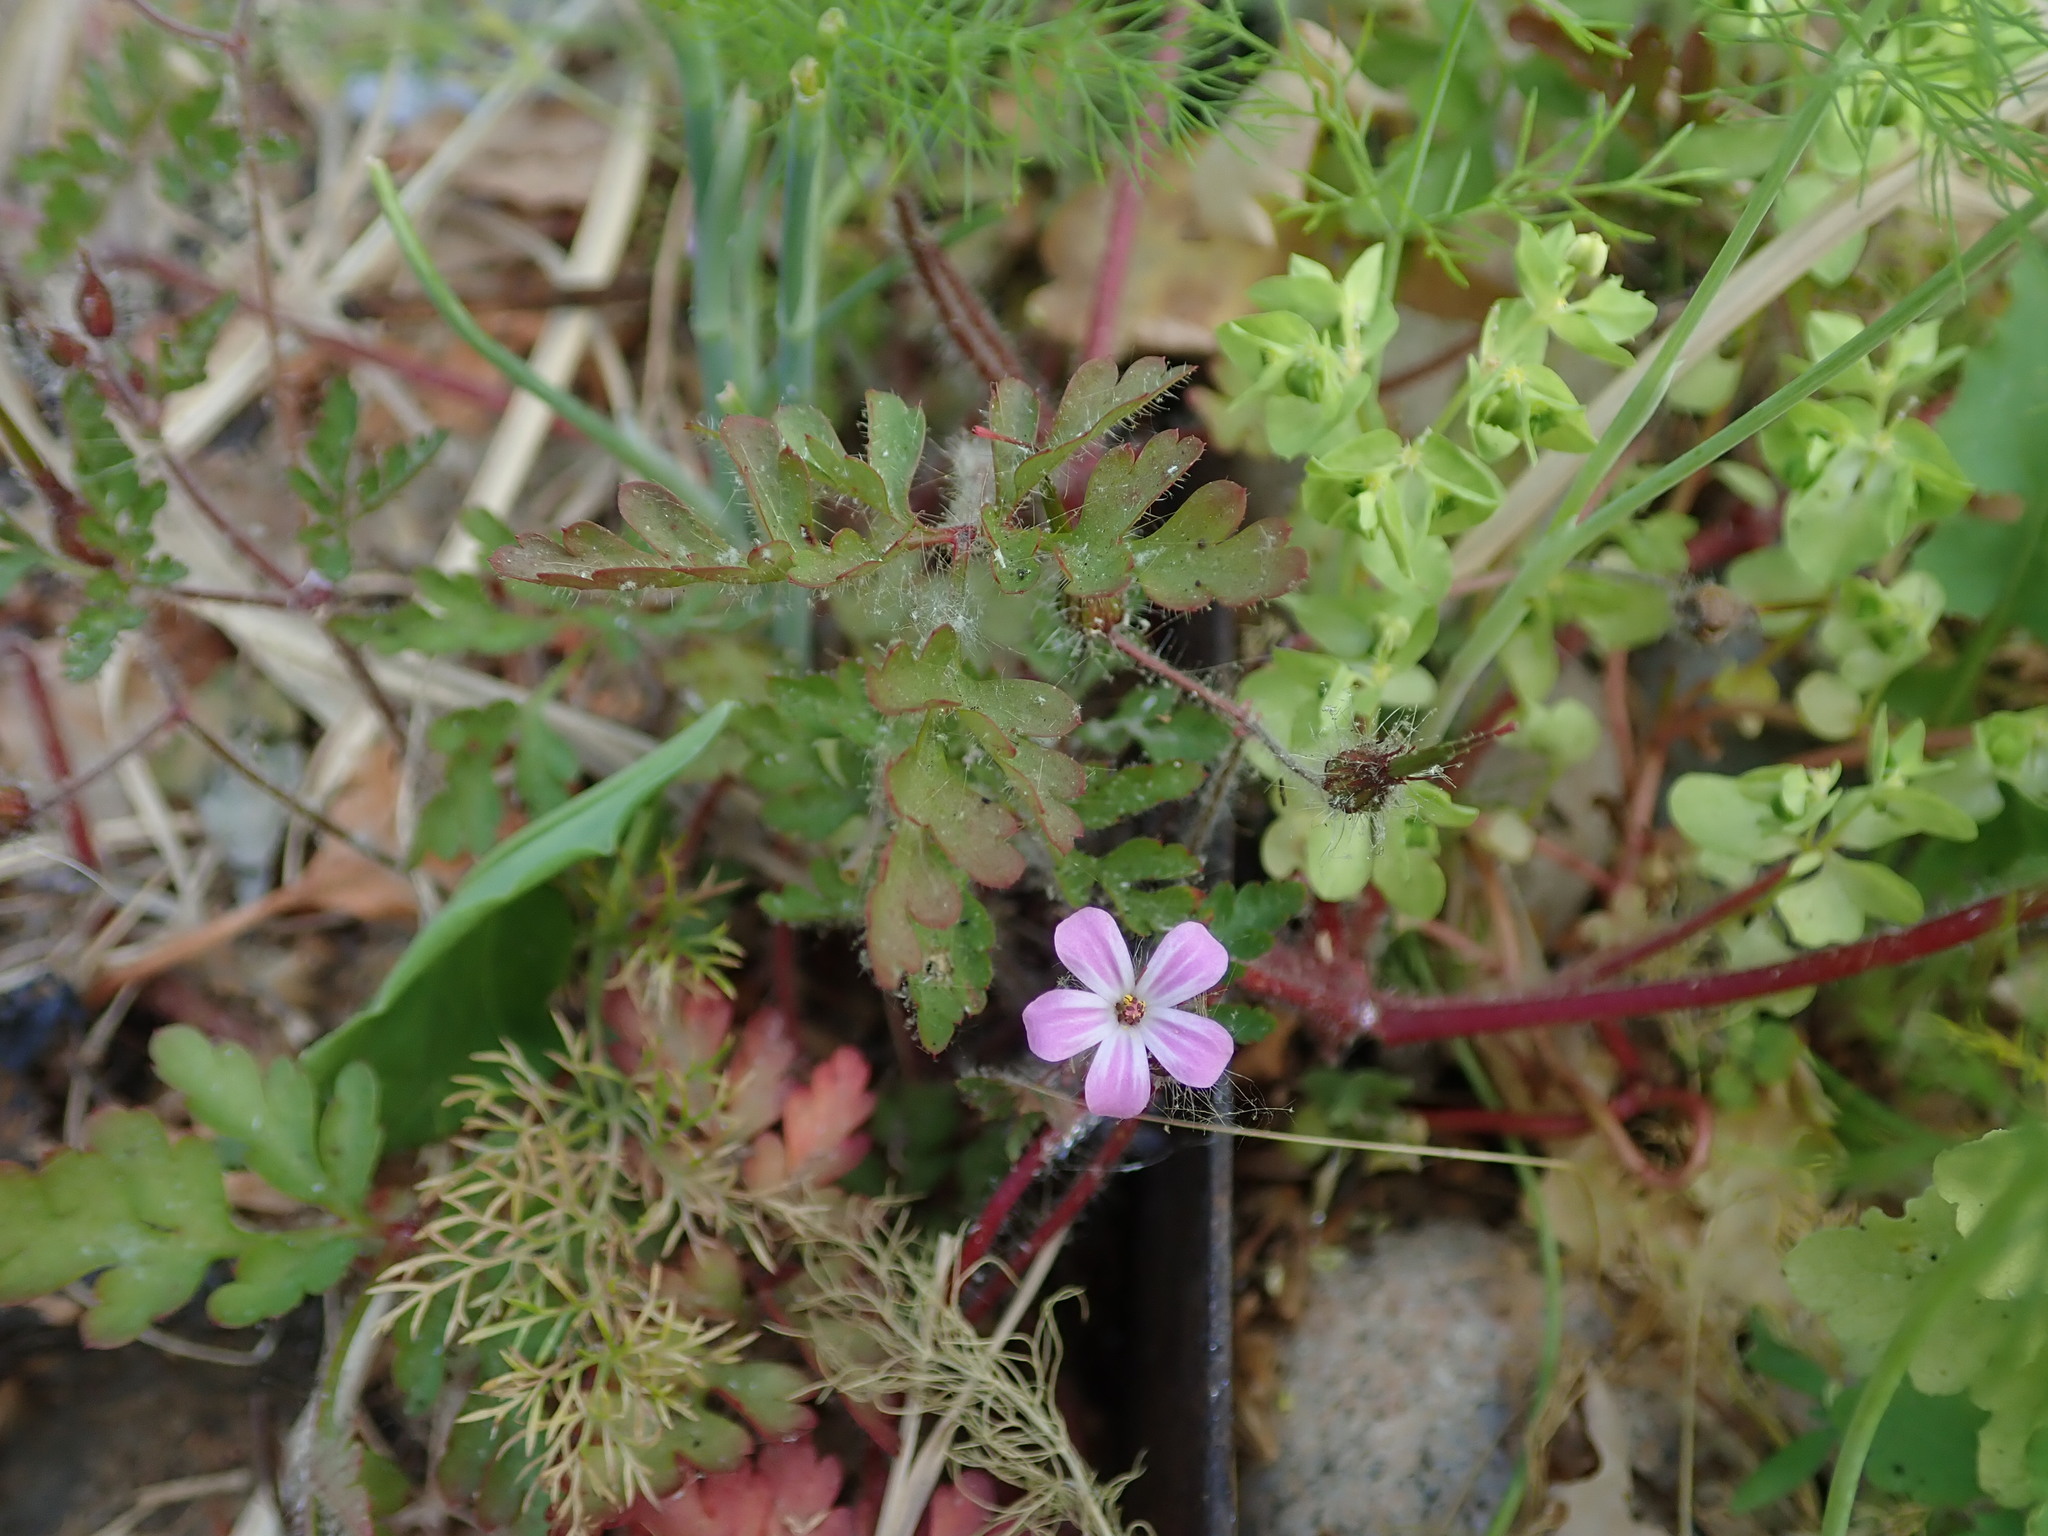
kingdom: Plantae
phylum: Tracheophyta
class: Magnoliopsida
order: Geraniales
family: Geraniaceae
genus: Geranium
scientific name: Geranium robertianum
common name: Herb-robert
